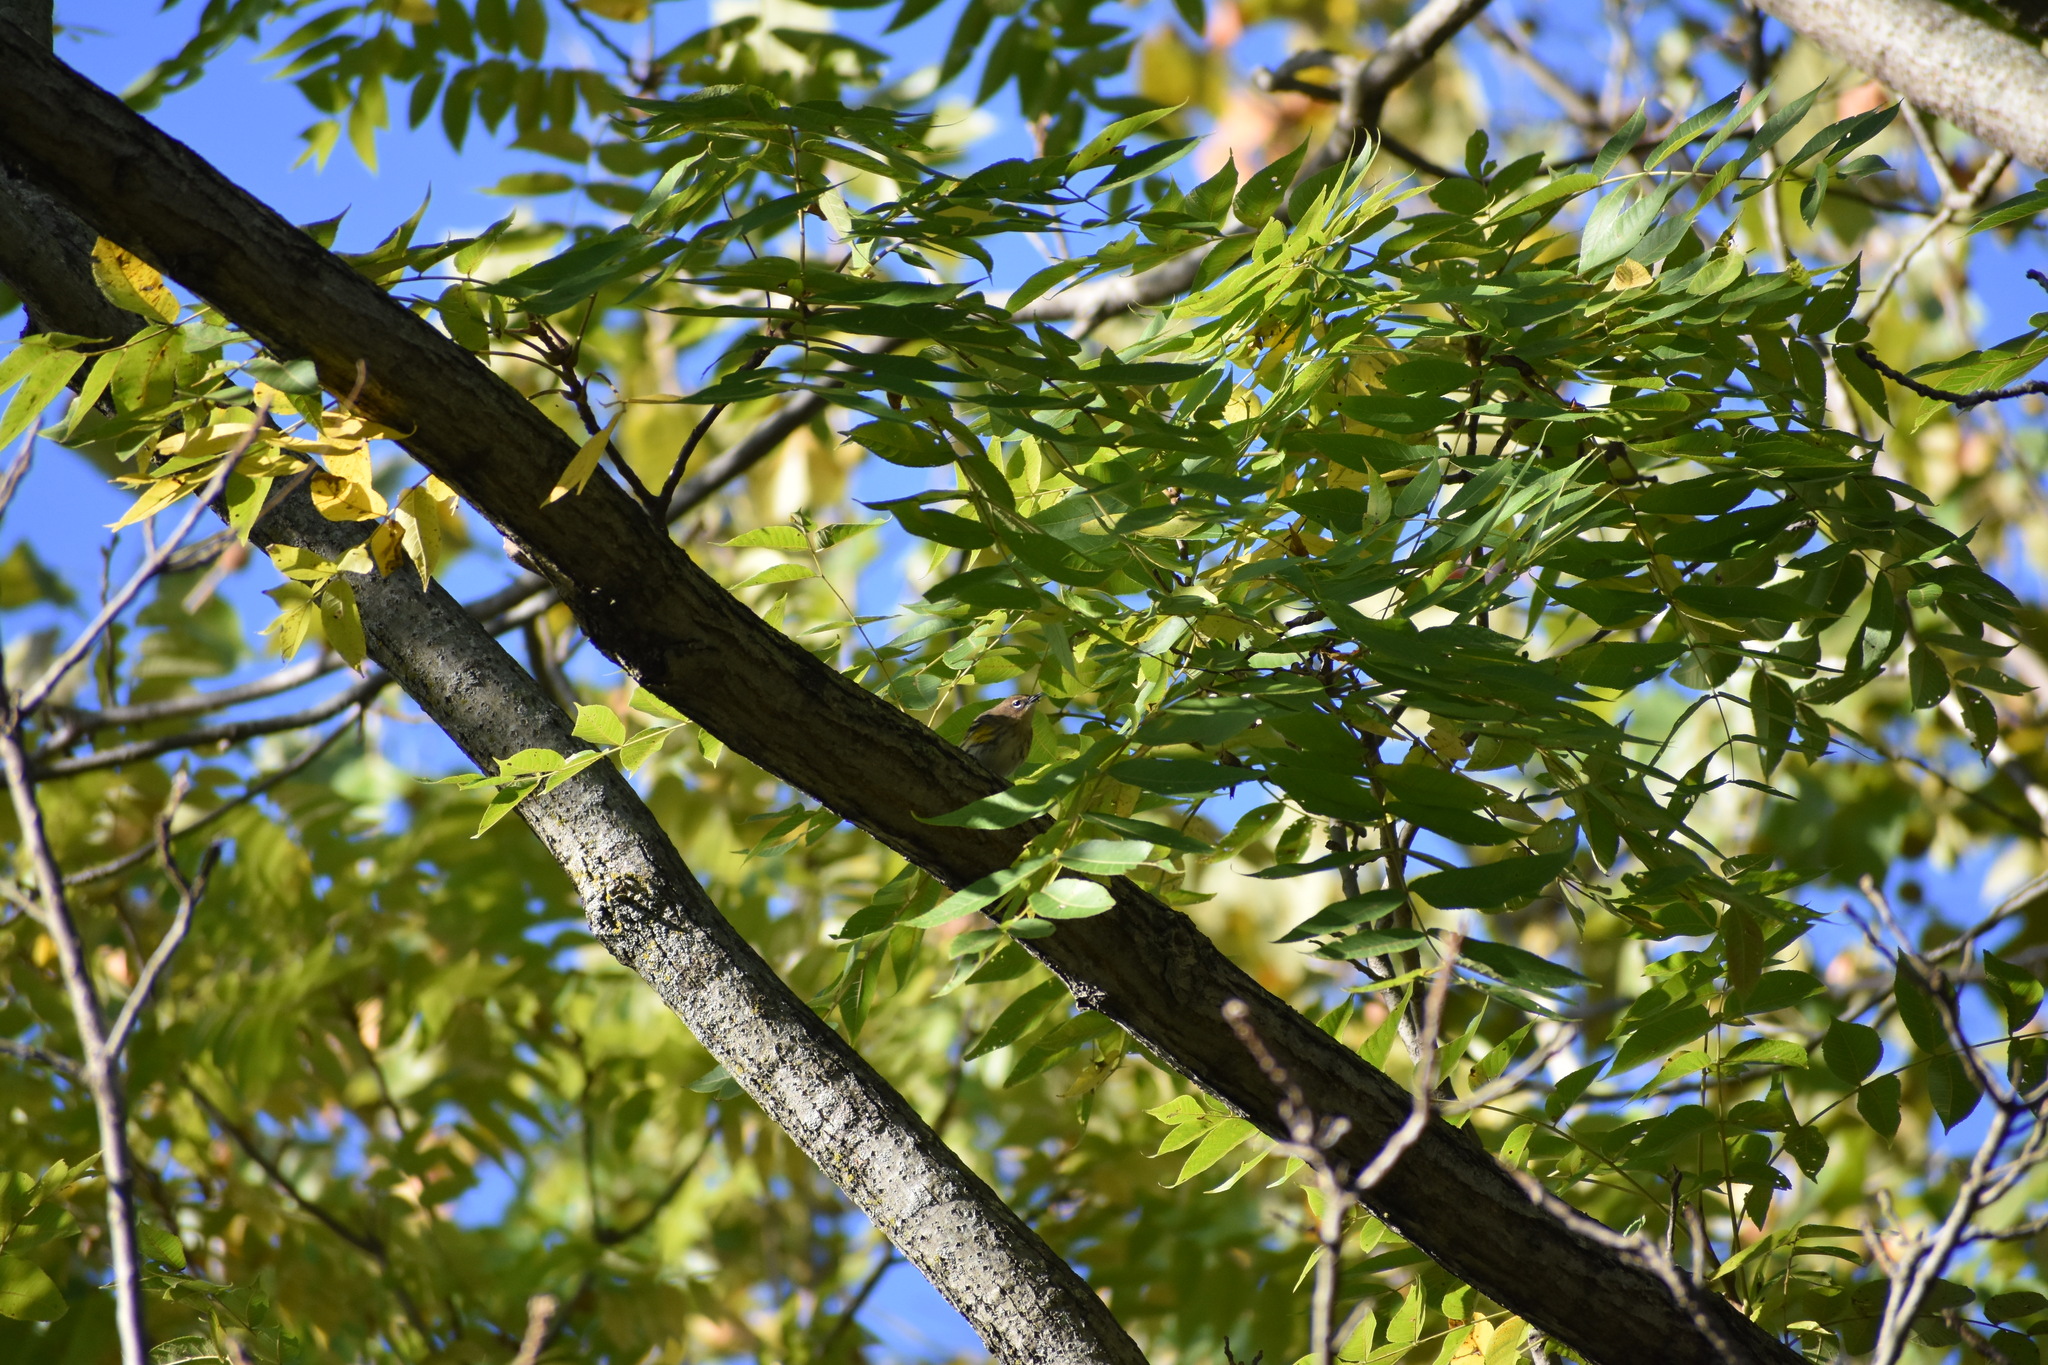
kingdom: Animalia
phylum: Chordata
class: Aves
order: Passeriformes
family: Parulidae
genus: Setophaga
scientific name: Setophaga coronata
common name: Myrtle warbler
